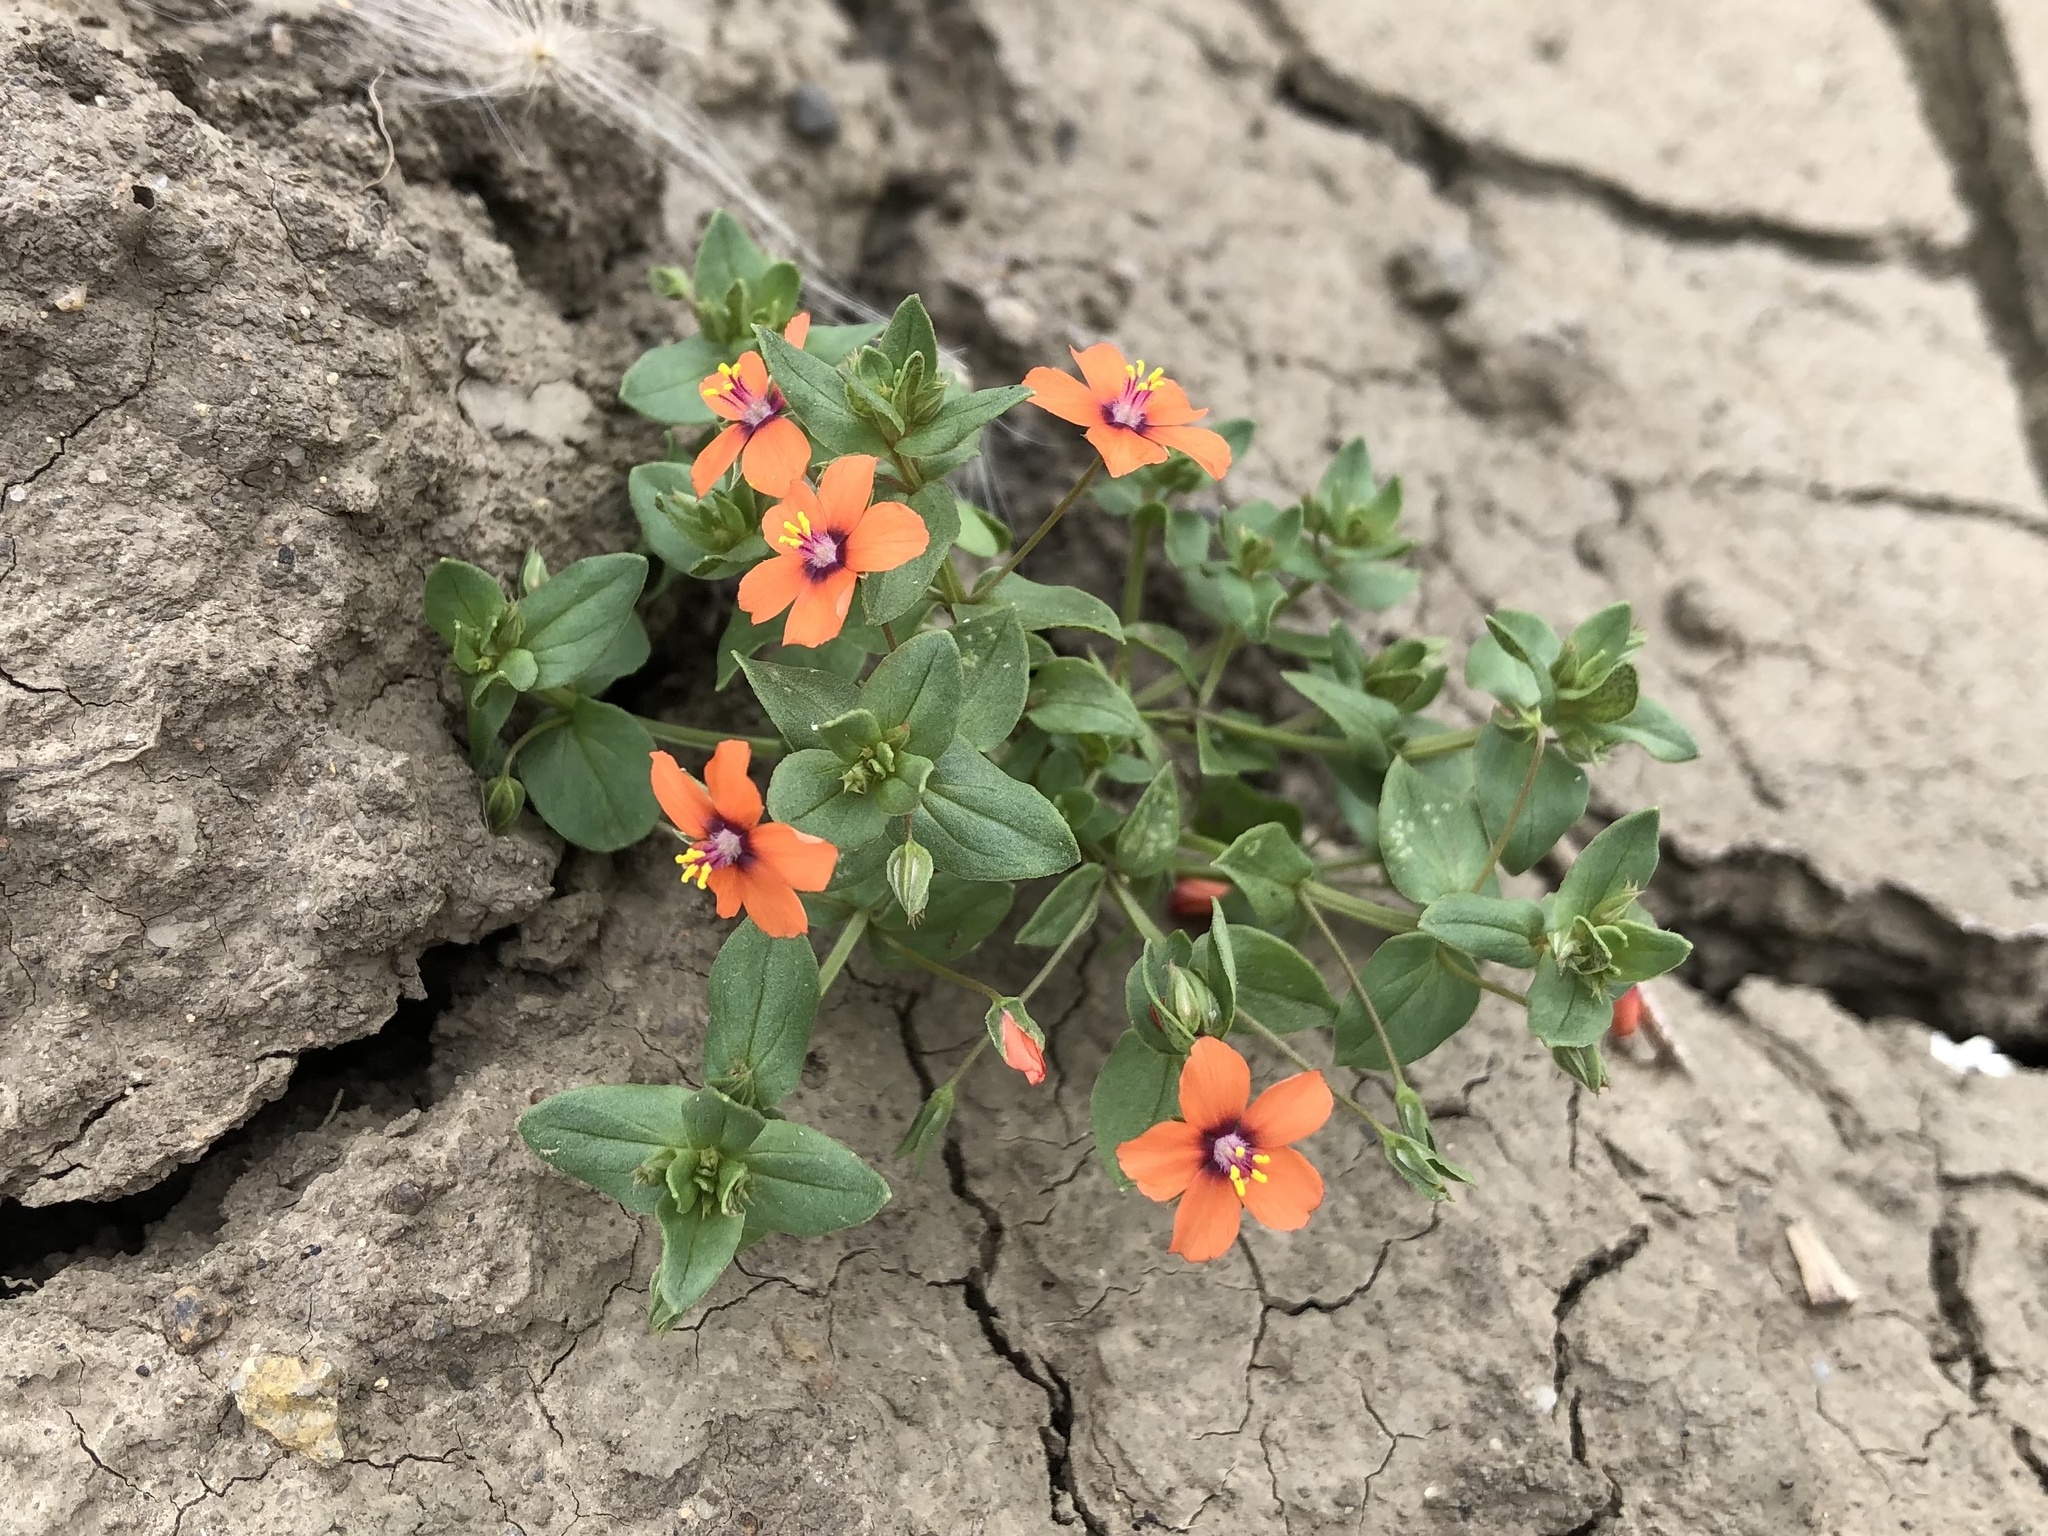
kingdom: Plantae
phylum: Tracheophyta
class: Magnoliopsida
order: Ericales
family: Primulaceae
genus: Lysimachia
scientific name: Lysimachia arvensis
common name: Scarlet pimpernel
